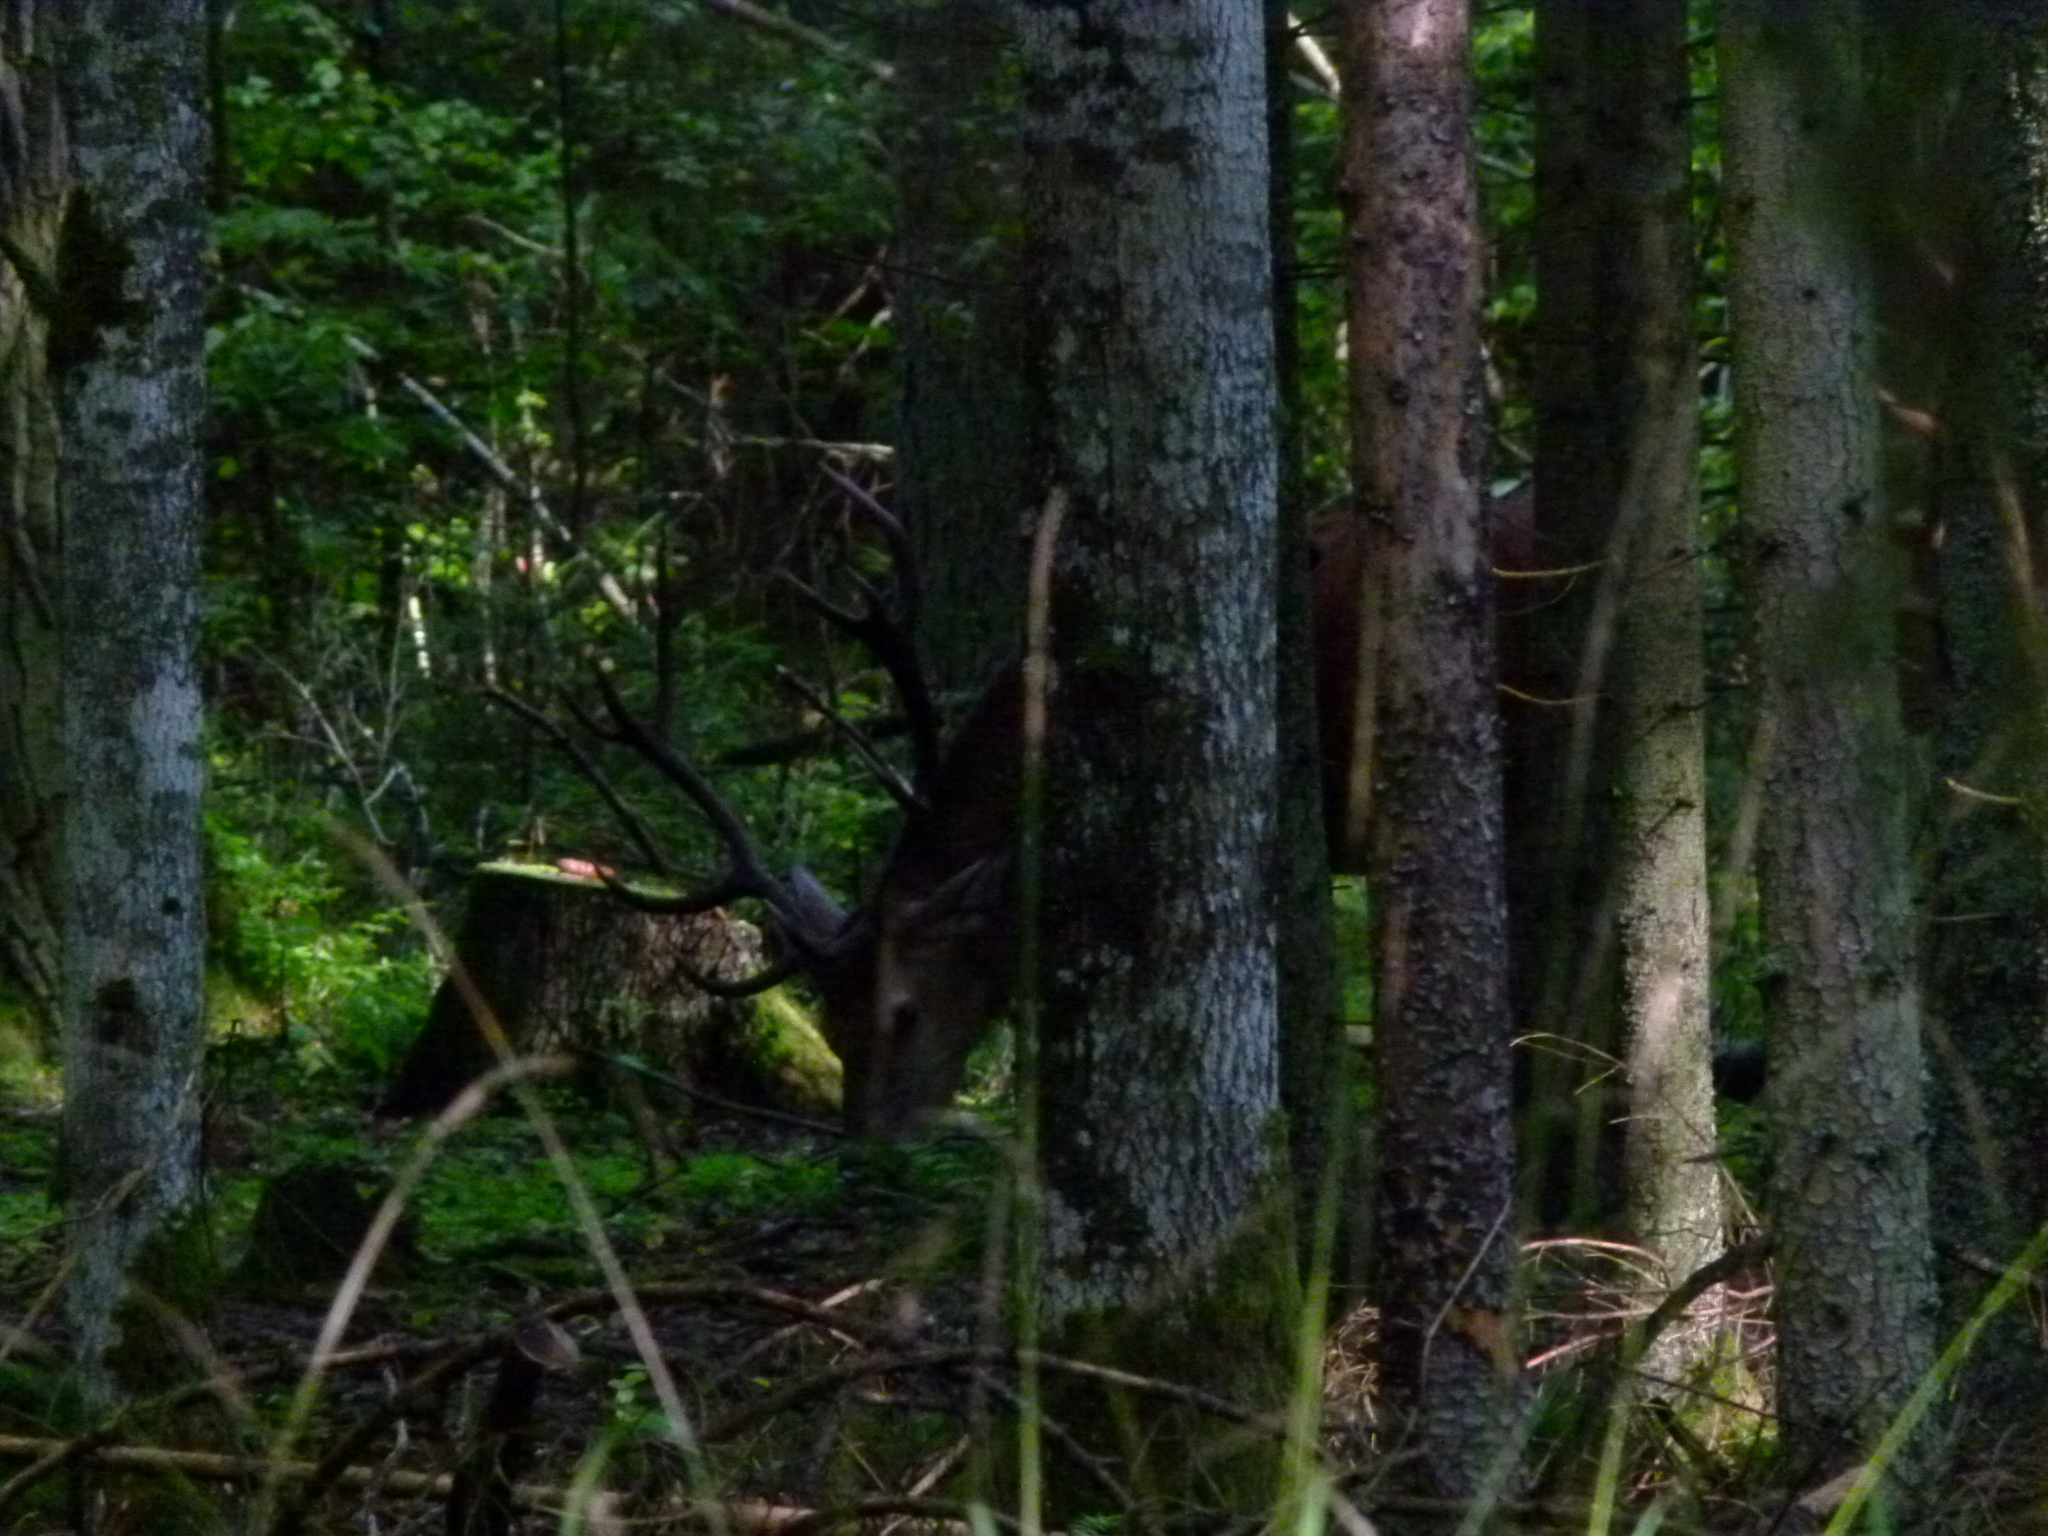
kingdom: Animalia
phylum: Chordata
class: Mammalia
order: Artiodactyla
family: Cervidae
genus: Cervus
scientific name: Cervus elaphus
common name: Red deer
